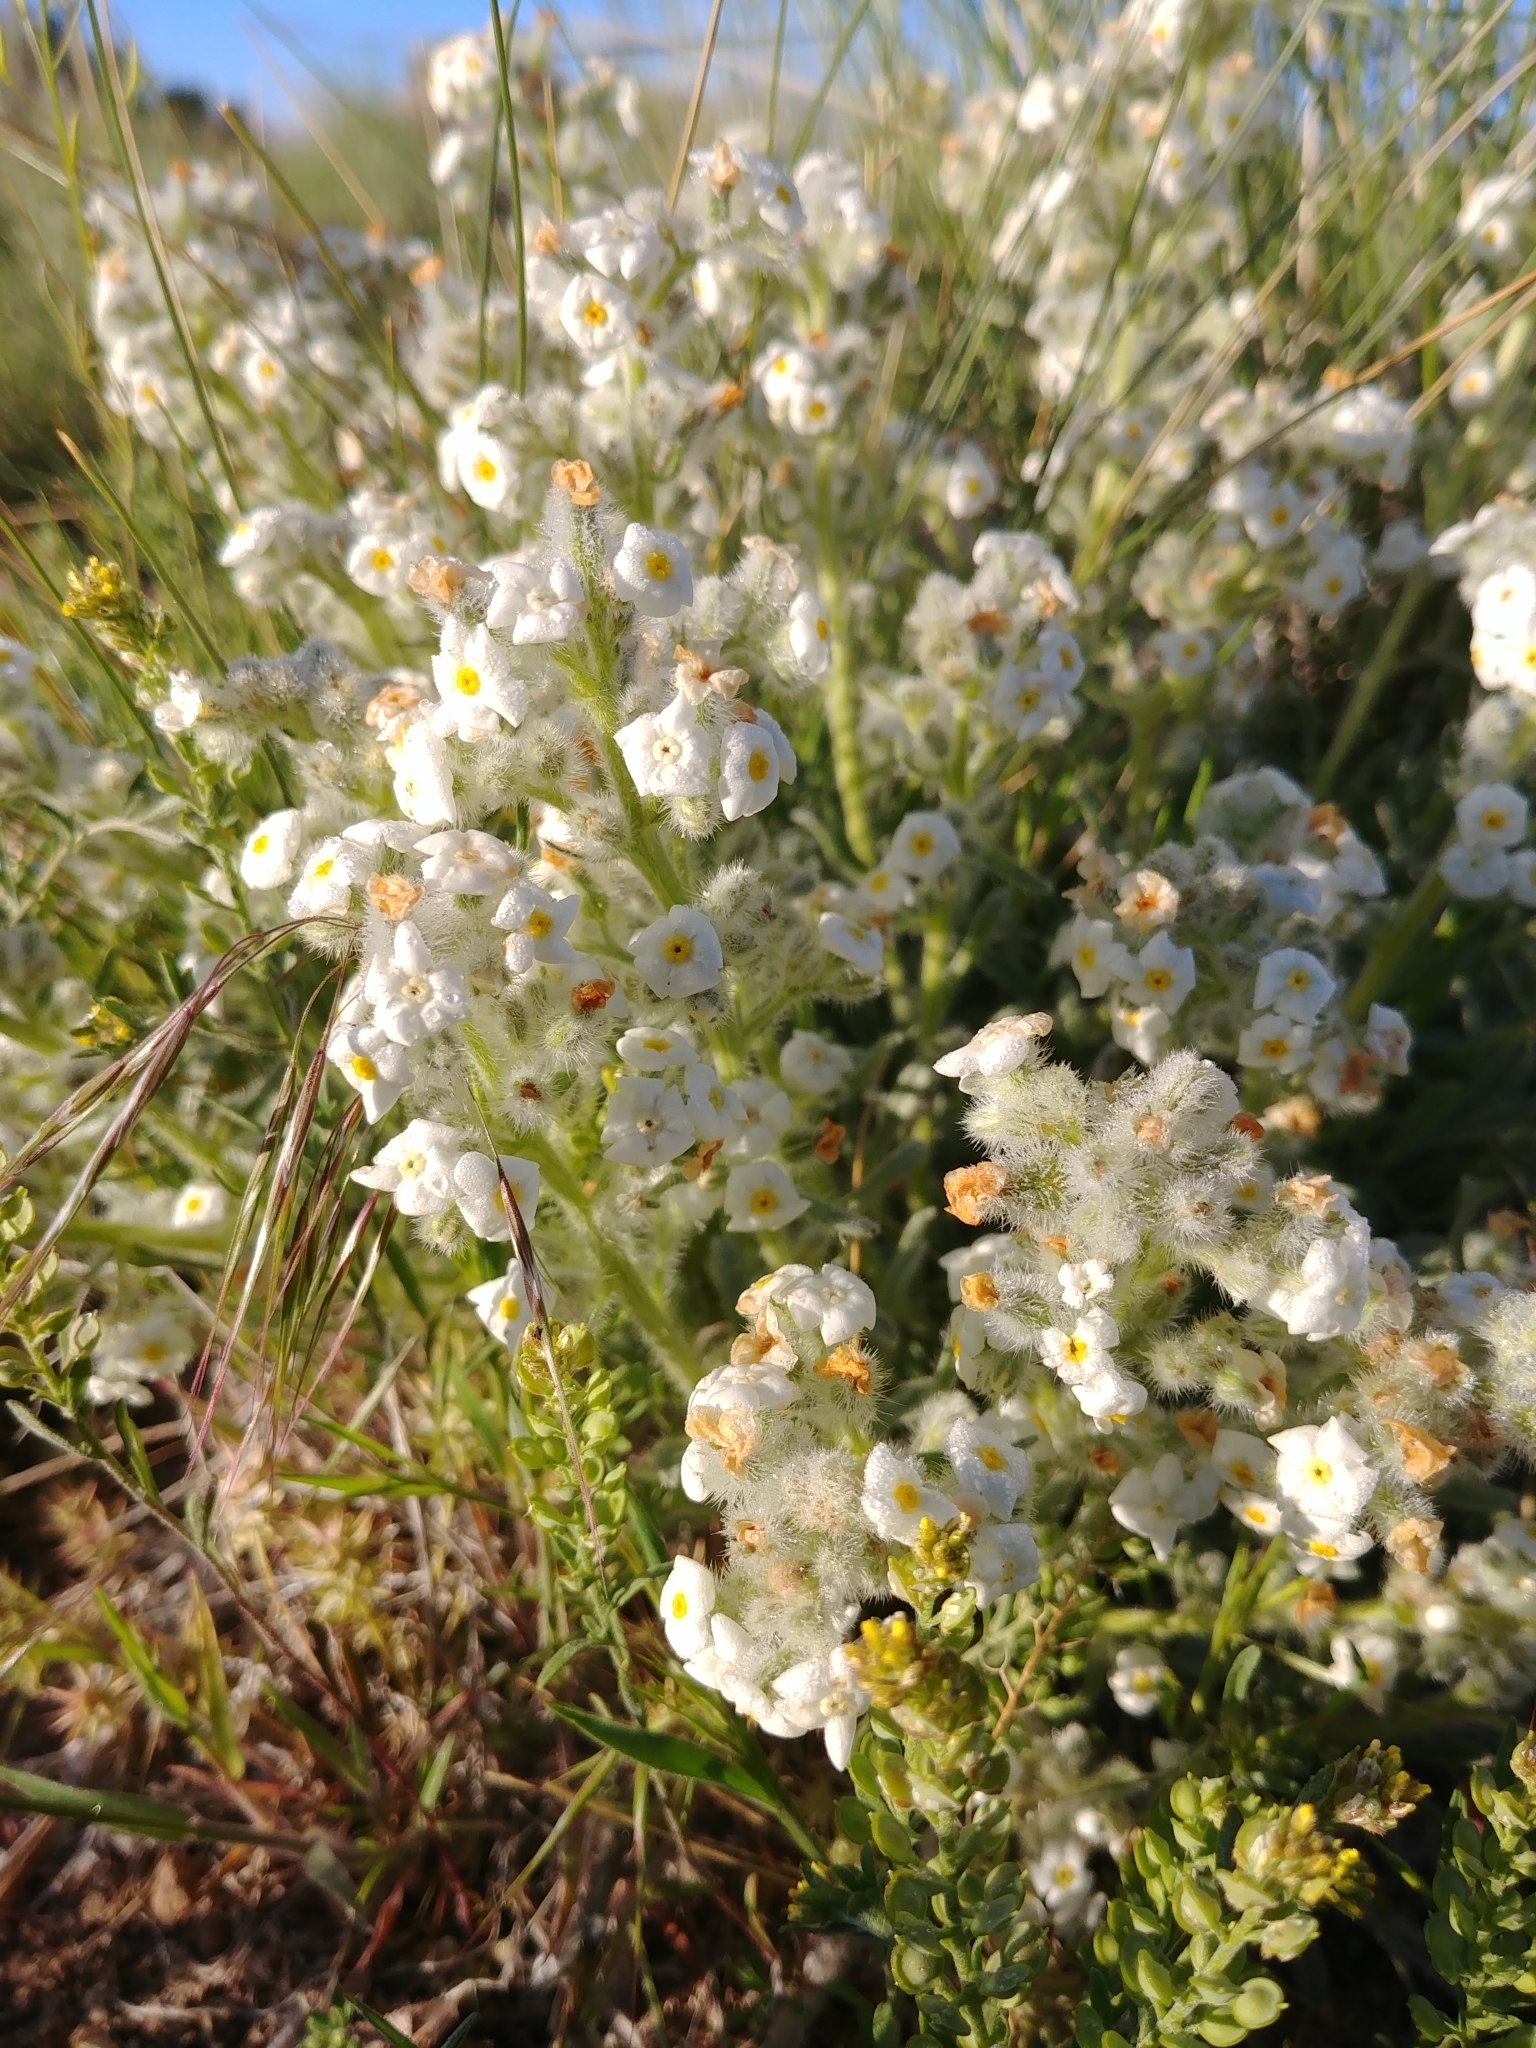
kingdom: Plantae
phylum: Tracheophyta
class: Magnoliopsida
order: Boraginales
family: Boraginaceae
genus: Oreocarya
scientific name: Oreocarya humilis
